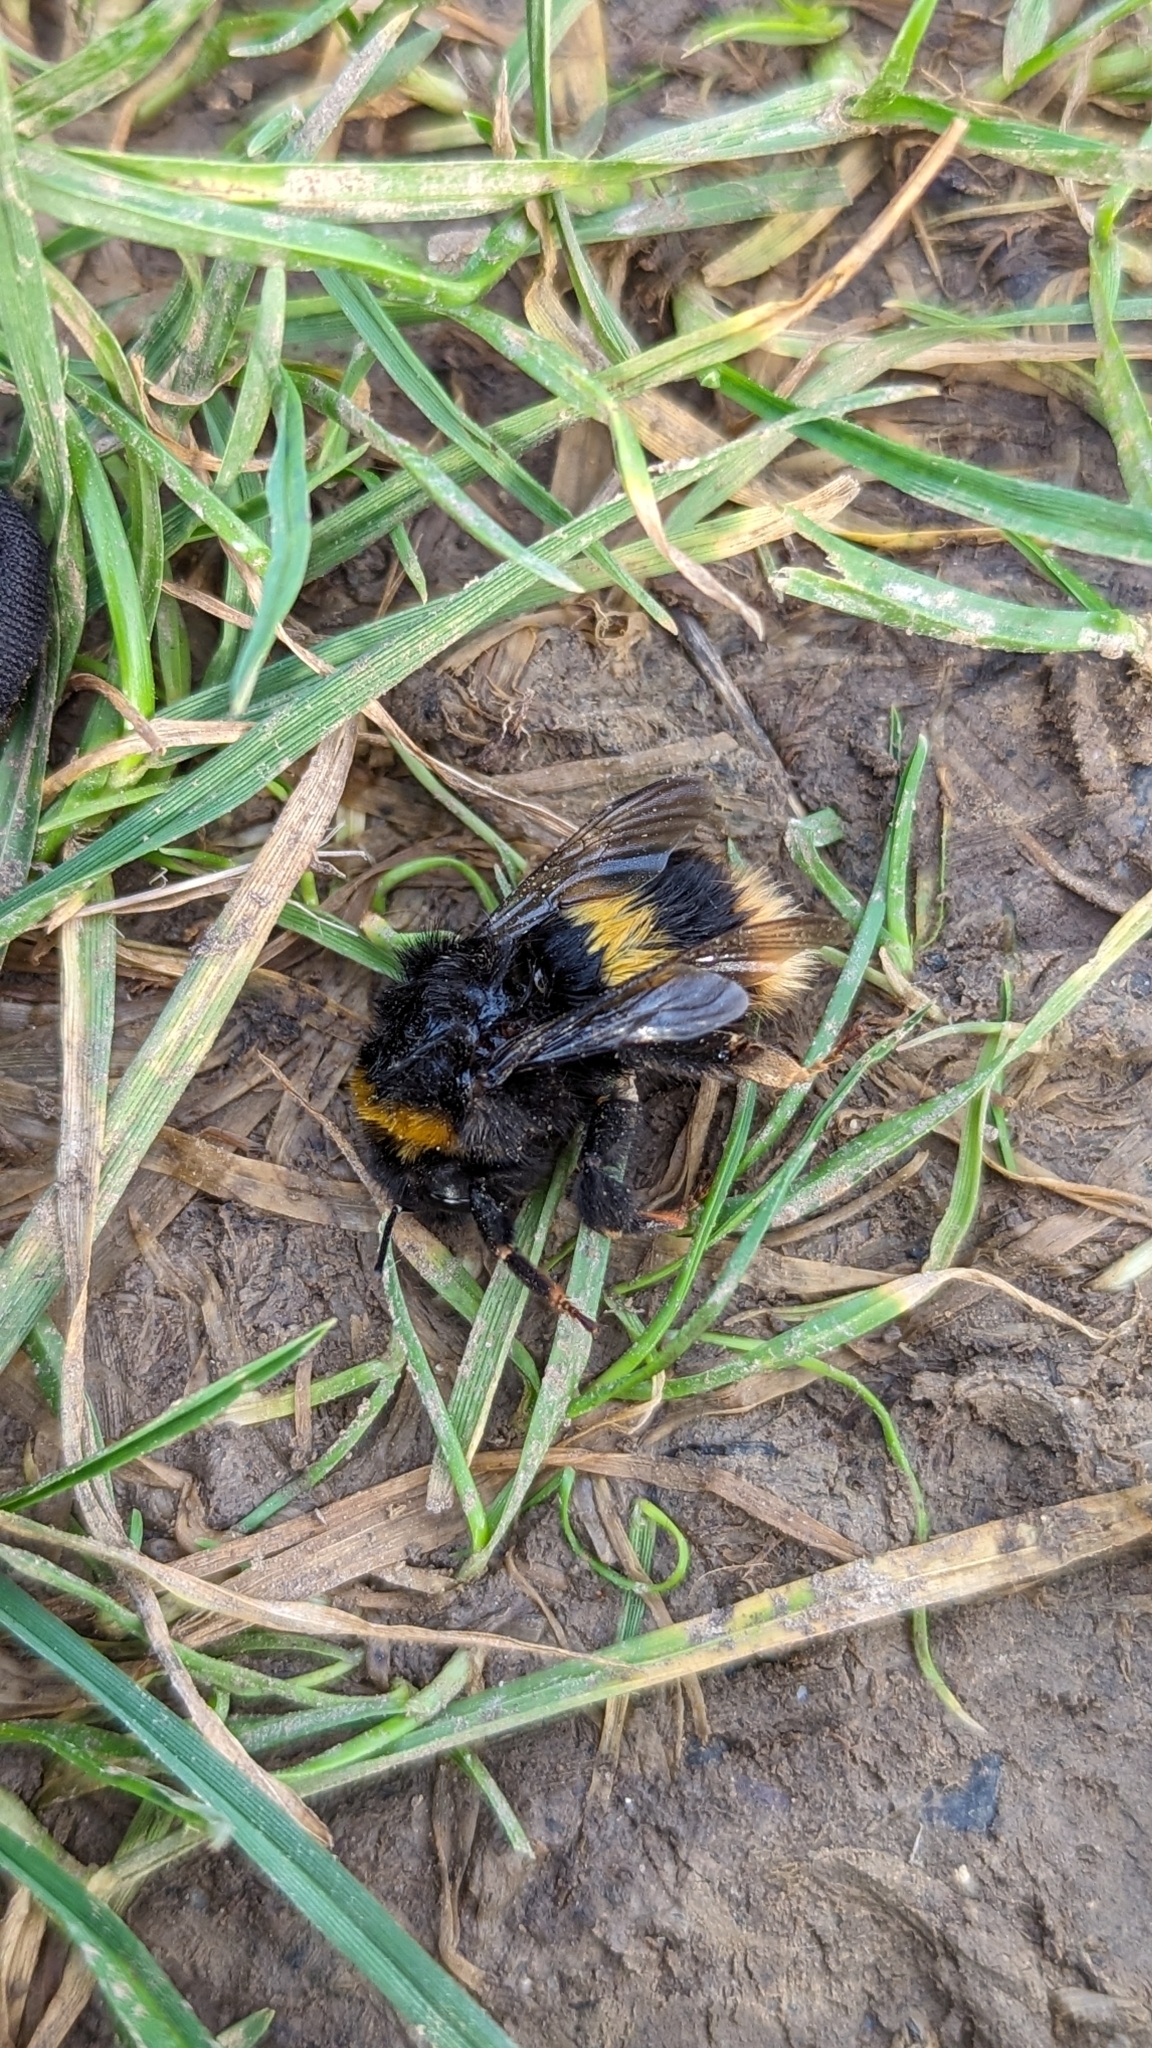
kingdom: Animalia
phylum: Arthropoda
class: Insecta
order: Hymenoptera
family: Apidae
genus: Bombus
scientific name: Bombus terrestris
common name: Buff-tailed bumblebee
